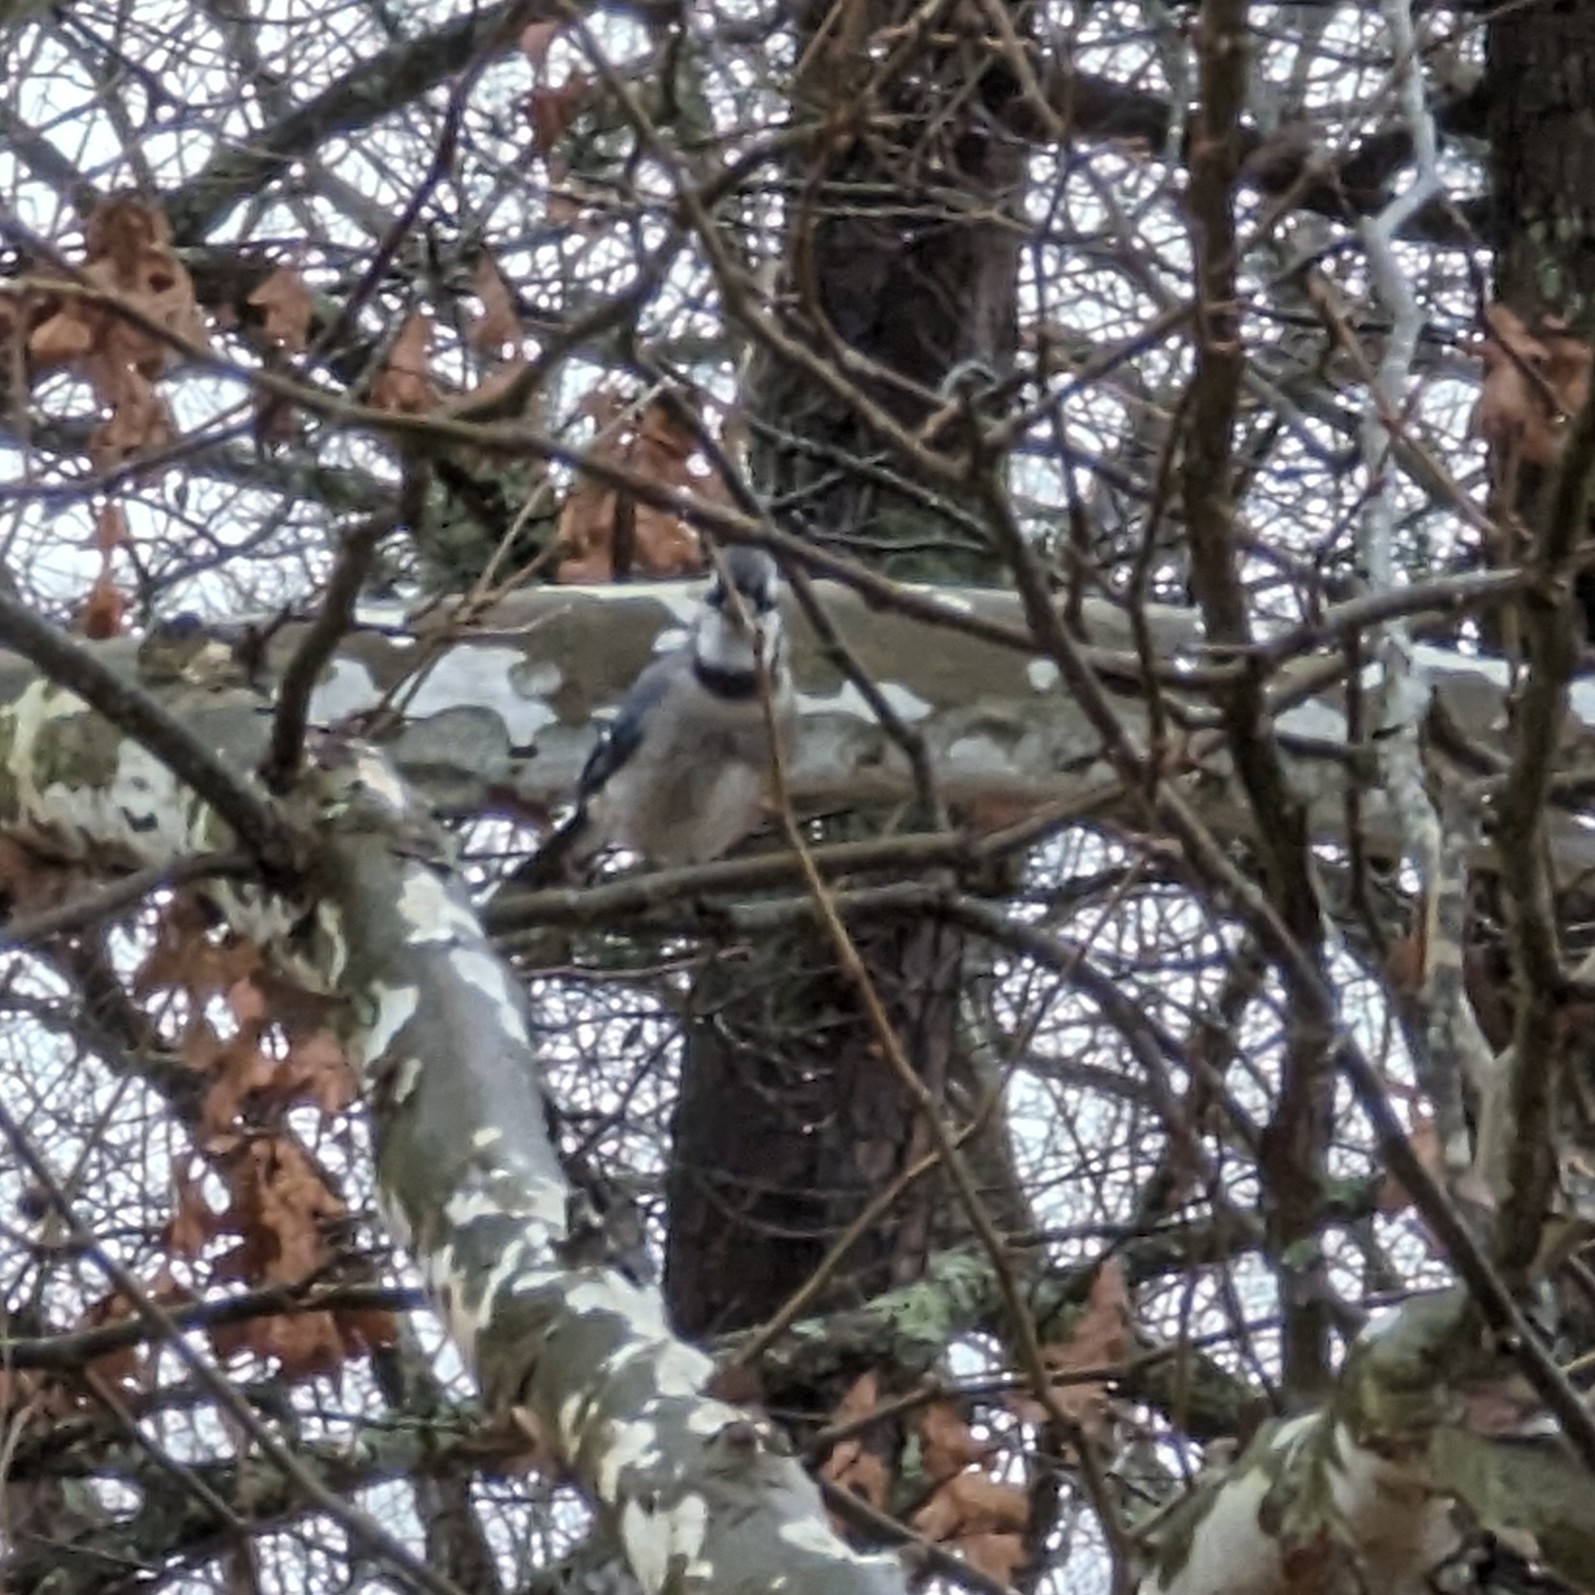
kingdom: Animalia
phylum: Chordata
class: Aves
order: Passeriformes
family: Corvidae
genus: Cyanocitta
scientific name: Cyanocitta cristata
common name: Blue jay
